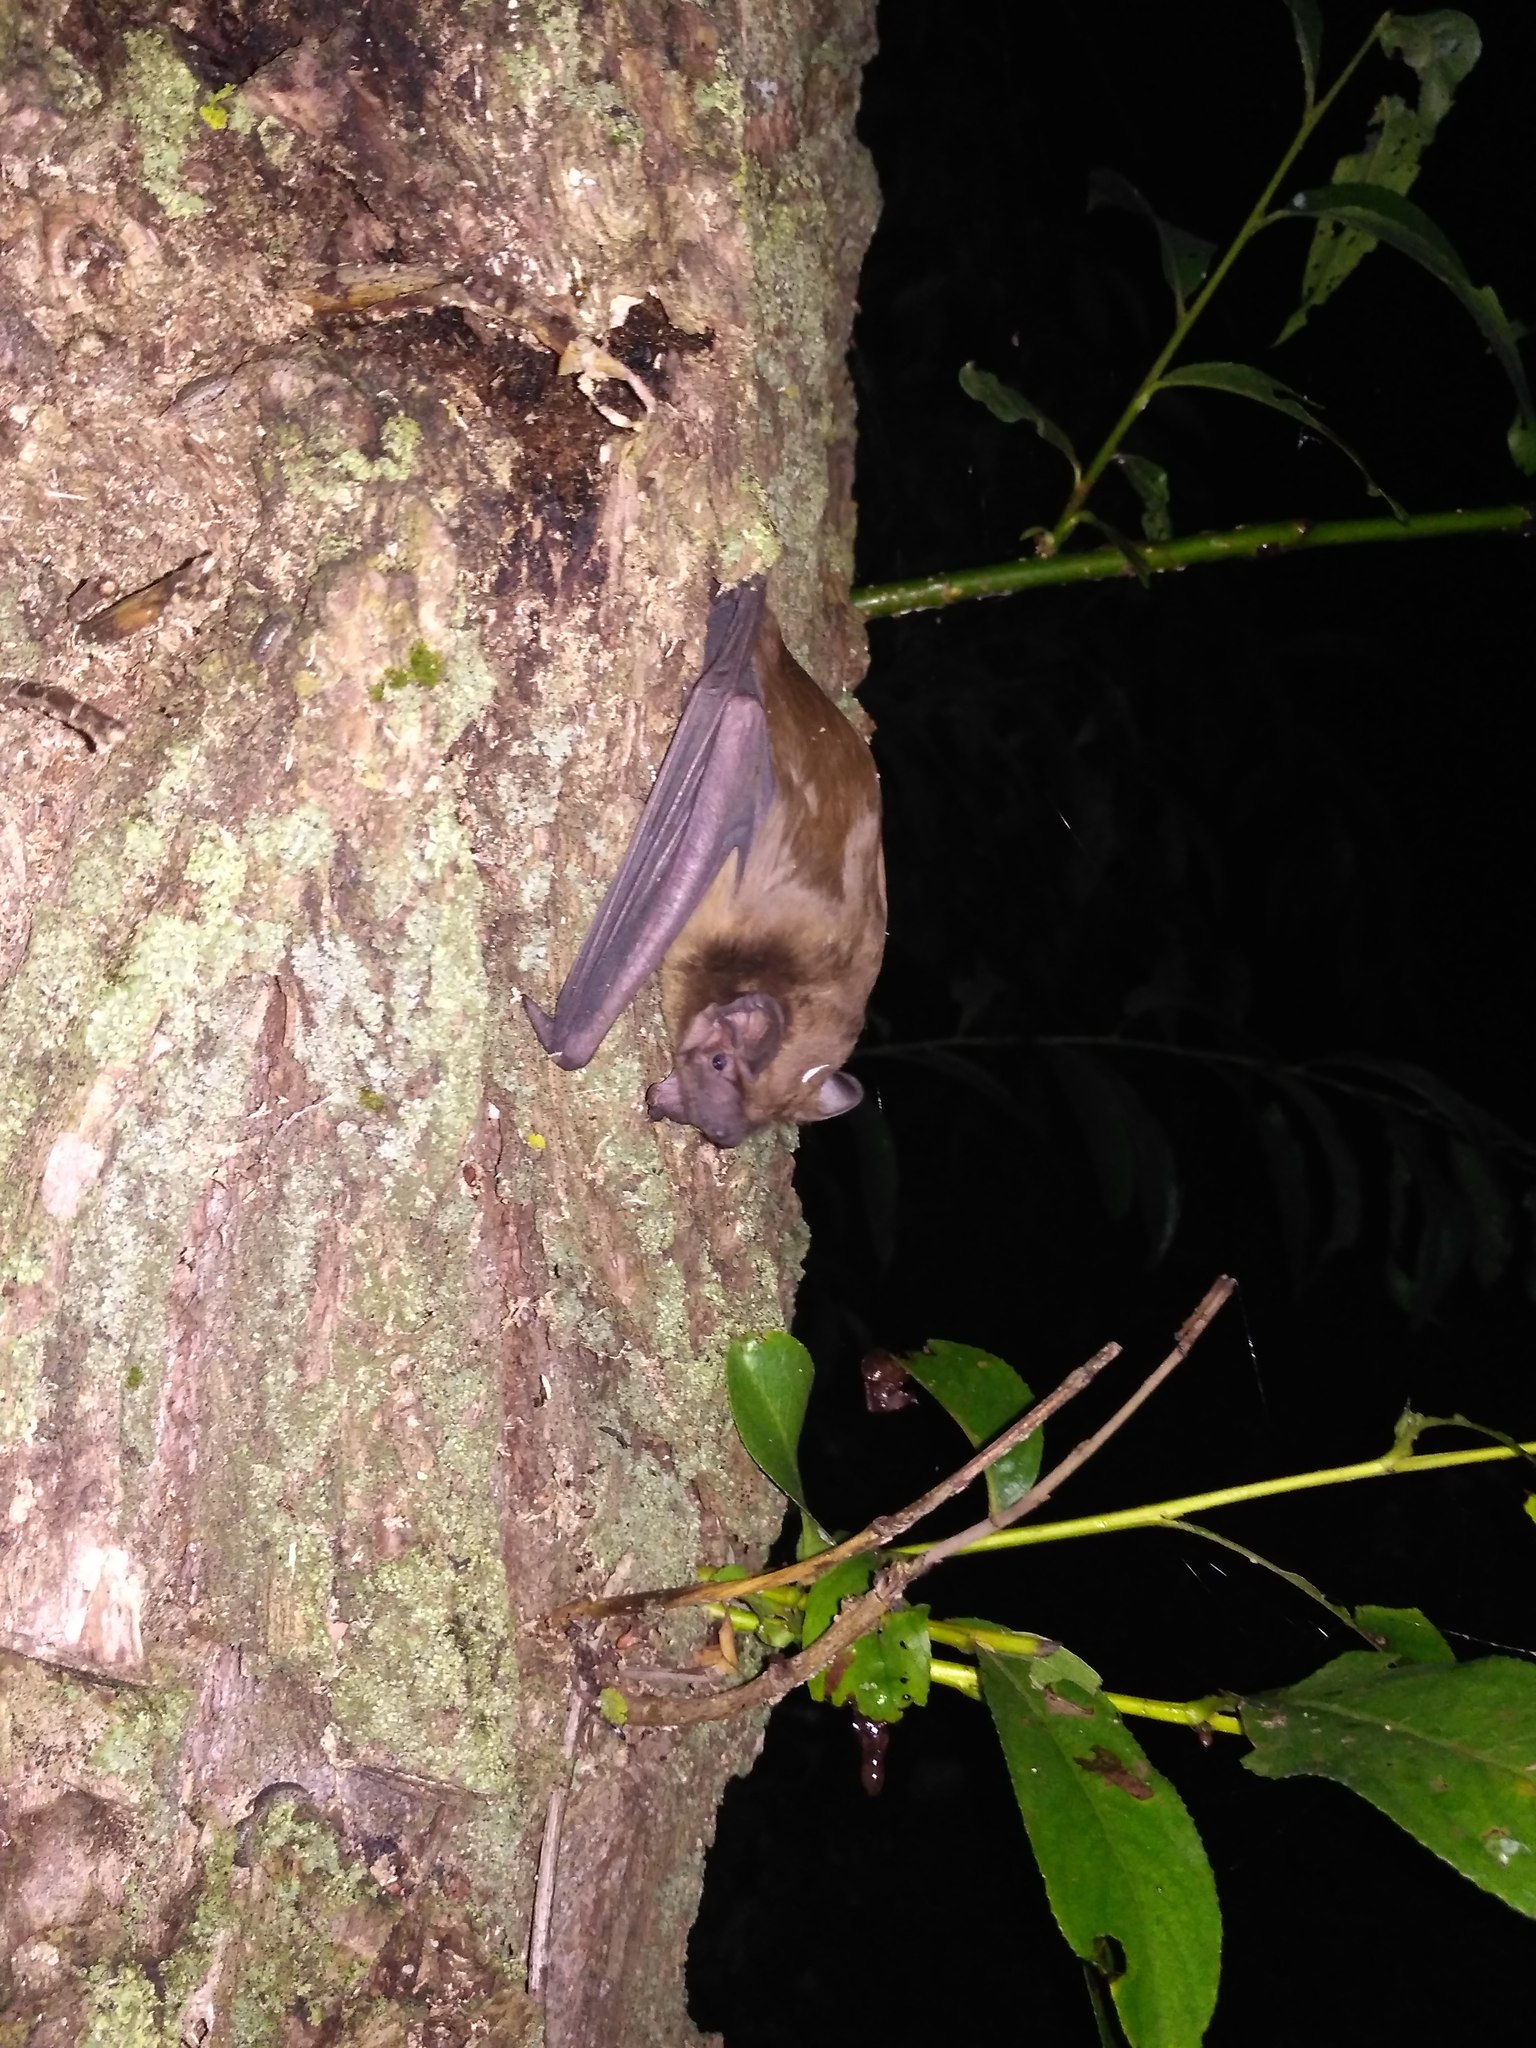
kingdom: Animalia
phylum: Chordata
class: Mammalia
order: Chiroptera
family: Vespertilionidae
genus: Nyctalus
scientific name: Nyctalus noctula
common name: Noctule
